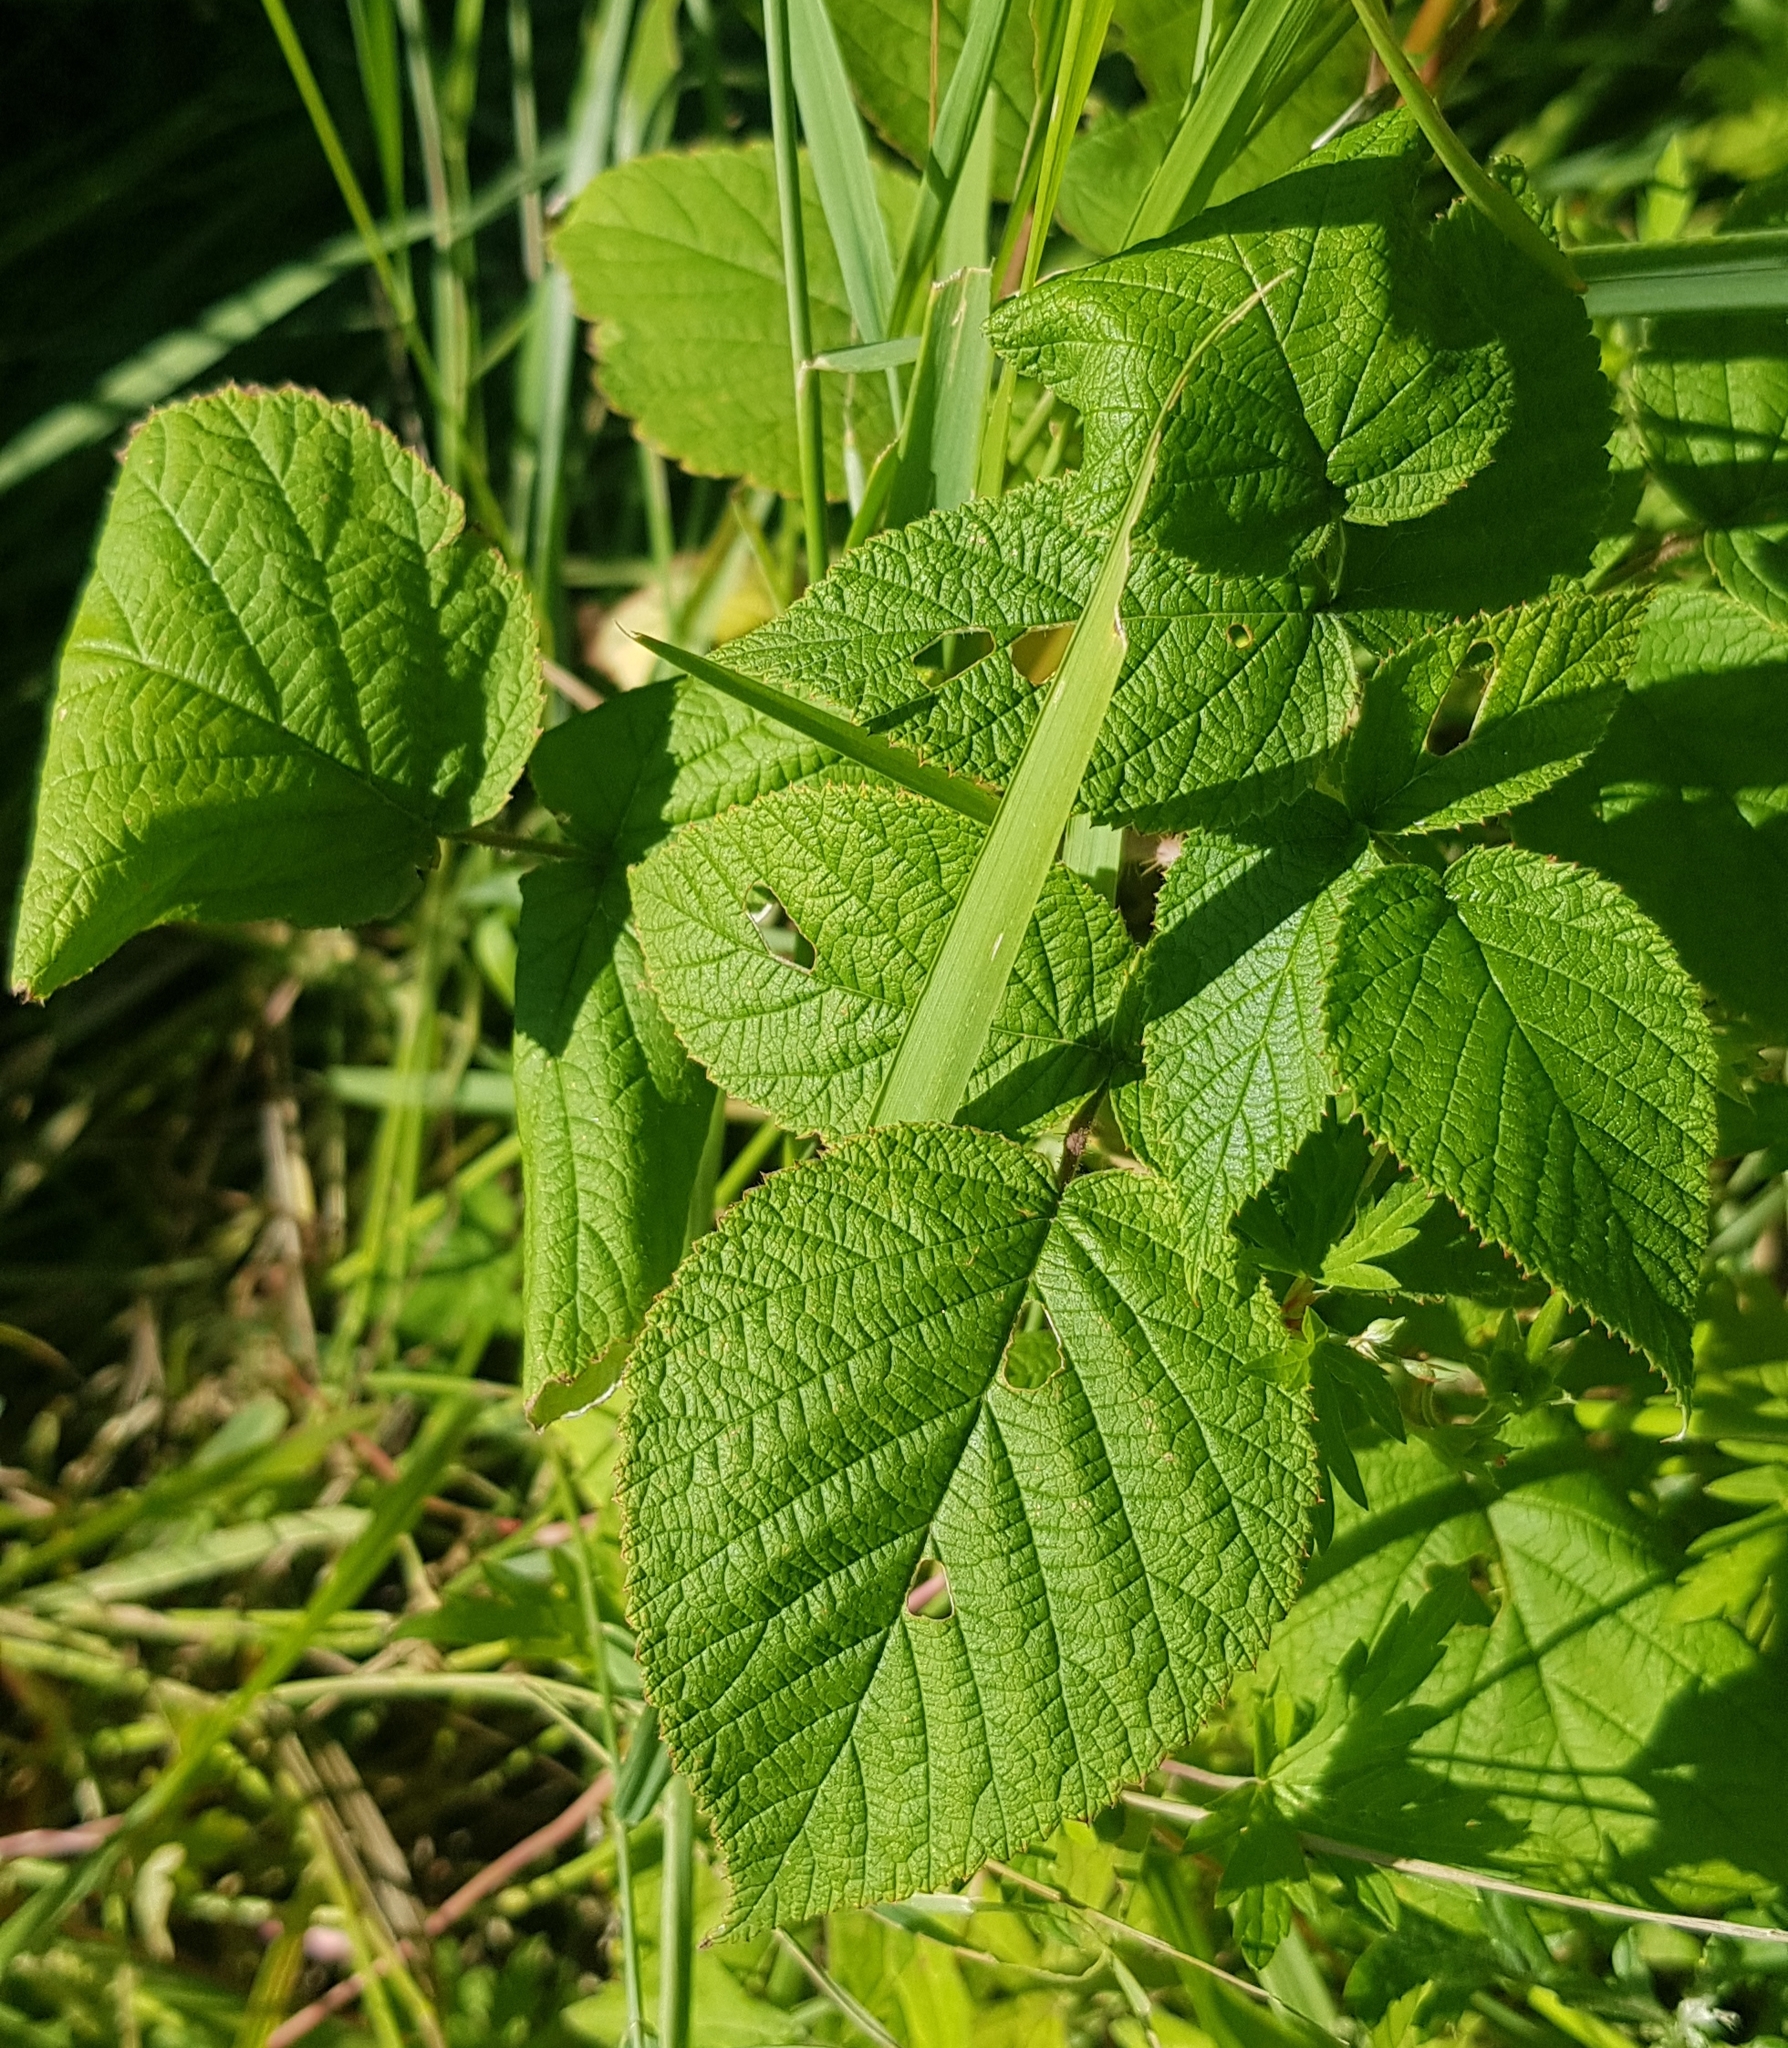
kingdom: Plantae
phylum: Tracheophyta
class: Magnoliopsida
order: Rosales
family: Rosaceae
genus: Rubus
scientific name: Rubus sachalinensis
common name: Red raspberry
